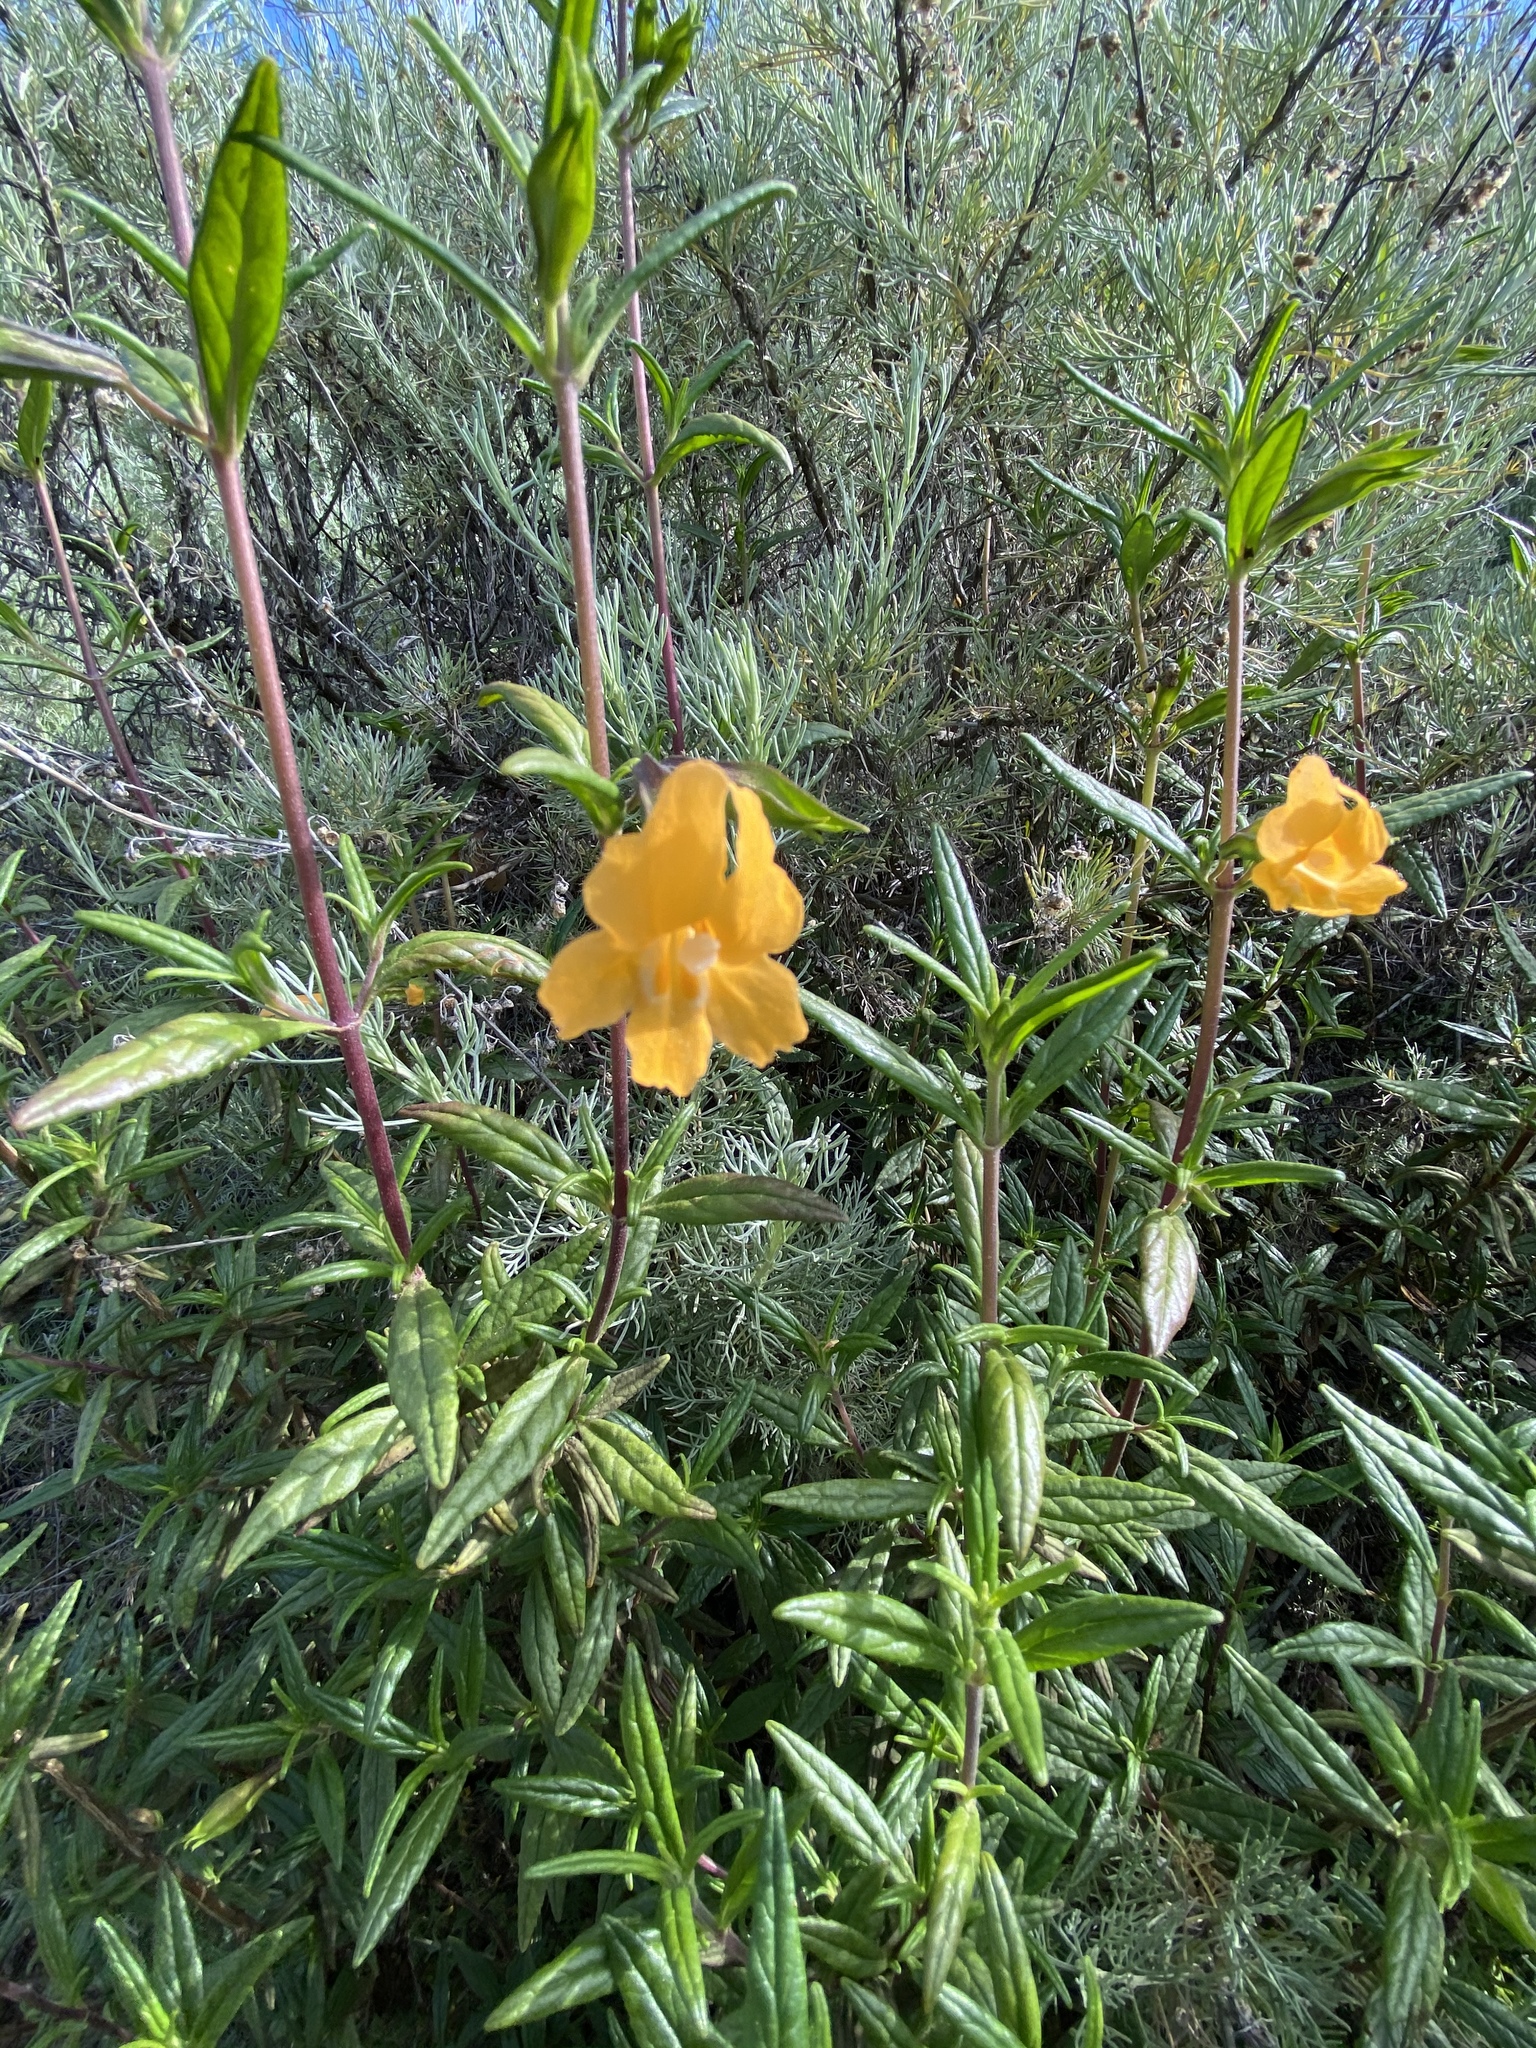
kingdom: Plantae
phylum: Tracheophyta
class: Magnoliopsida
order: Lamiales
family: Phrymaceae
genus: Diplacus
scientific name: Diplacus aurantiacus
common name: Bush monkey-flower
